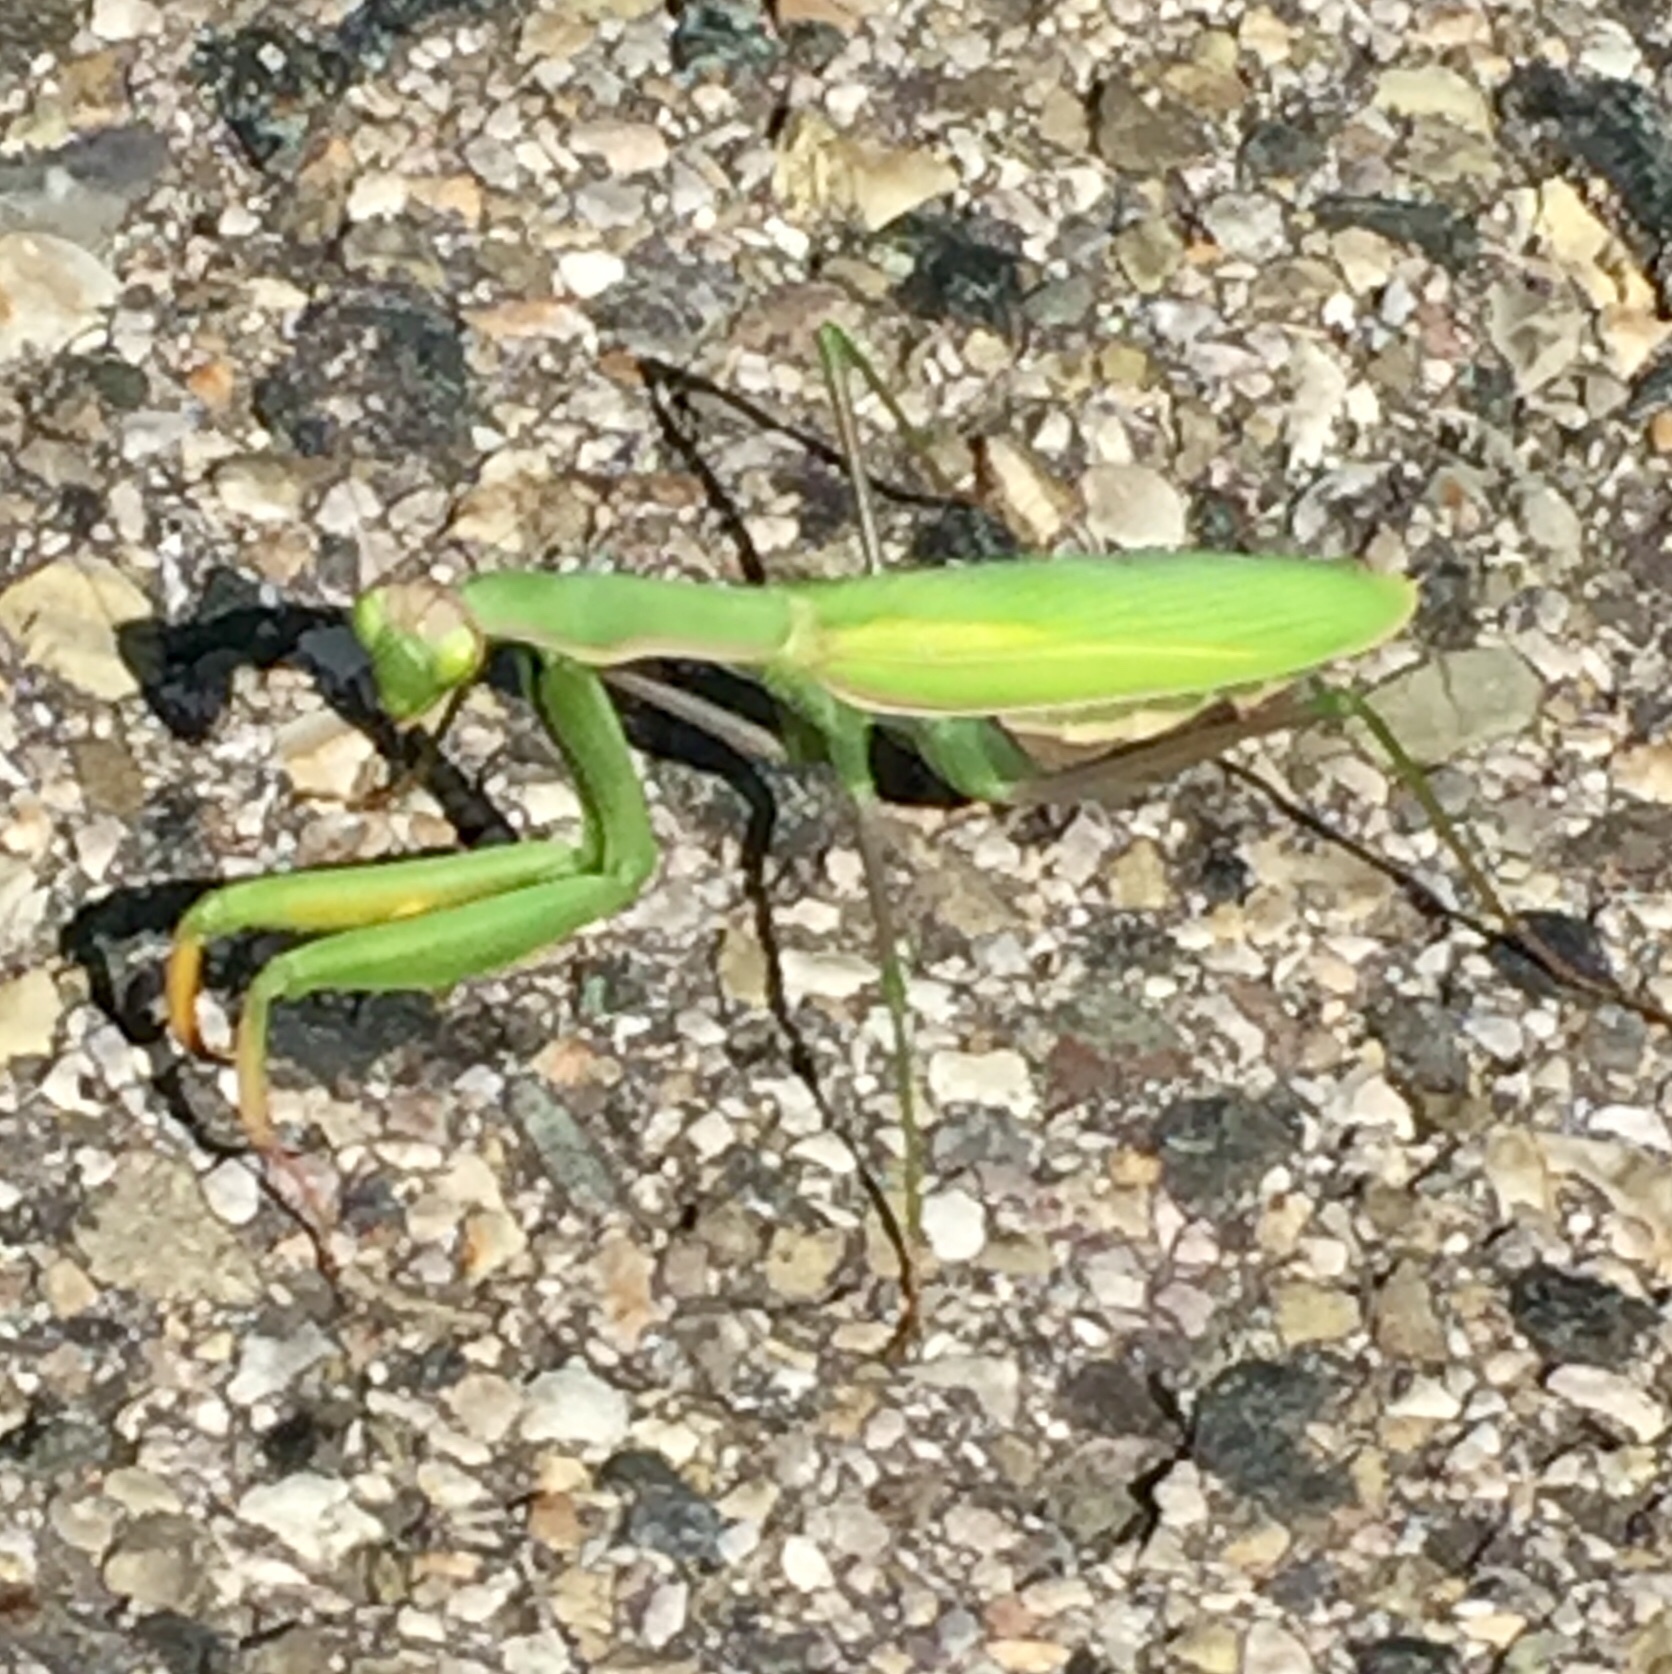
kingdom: Animalia
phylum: Arthropoda
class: Insecta
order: Mantodea
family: Mantidae
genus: Mantis
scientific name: Mantis religiosa
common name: Praying mantis
